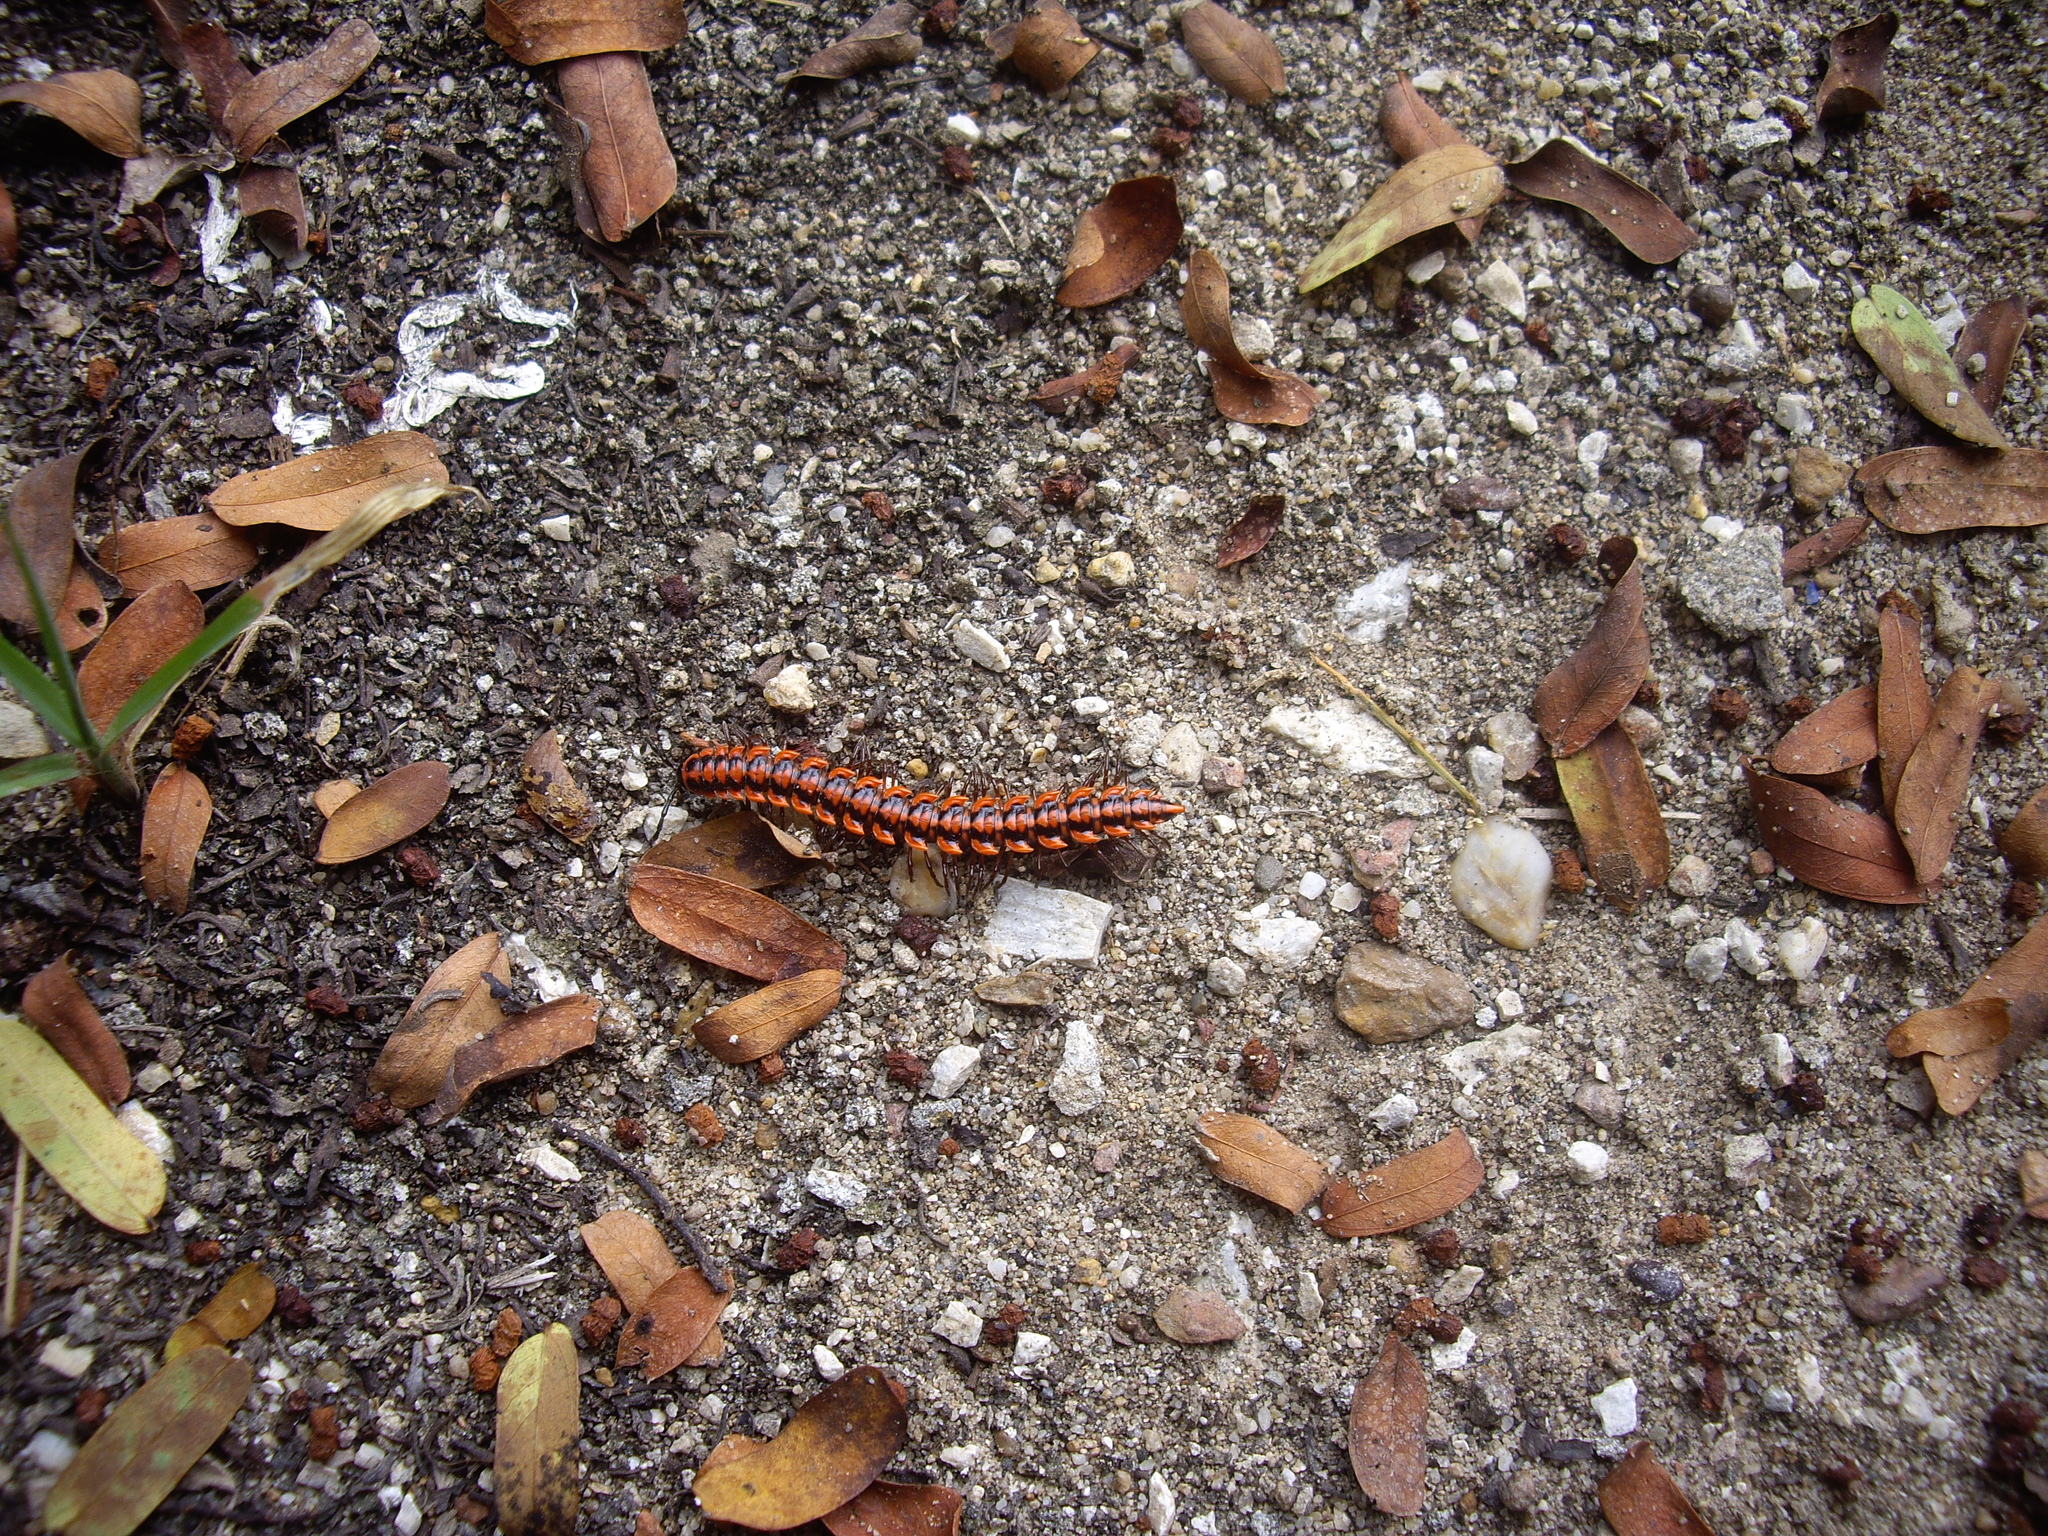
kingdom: Animalia
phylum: Arthropoda
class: Diplopoda
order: Polydesmida
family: Paradoxosomatidae
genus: Antheromorpha
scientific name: Antheromorpha uncinata
